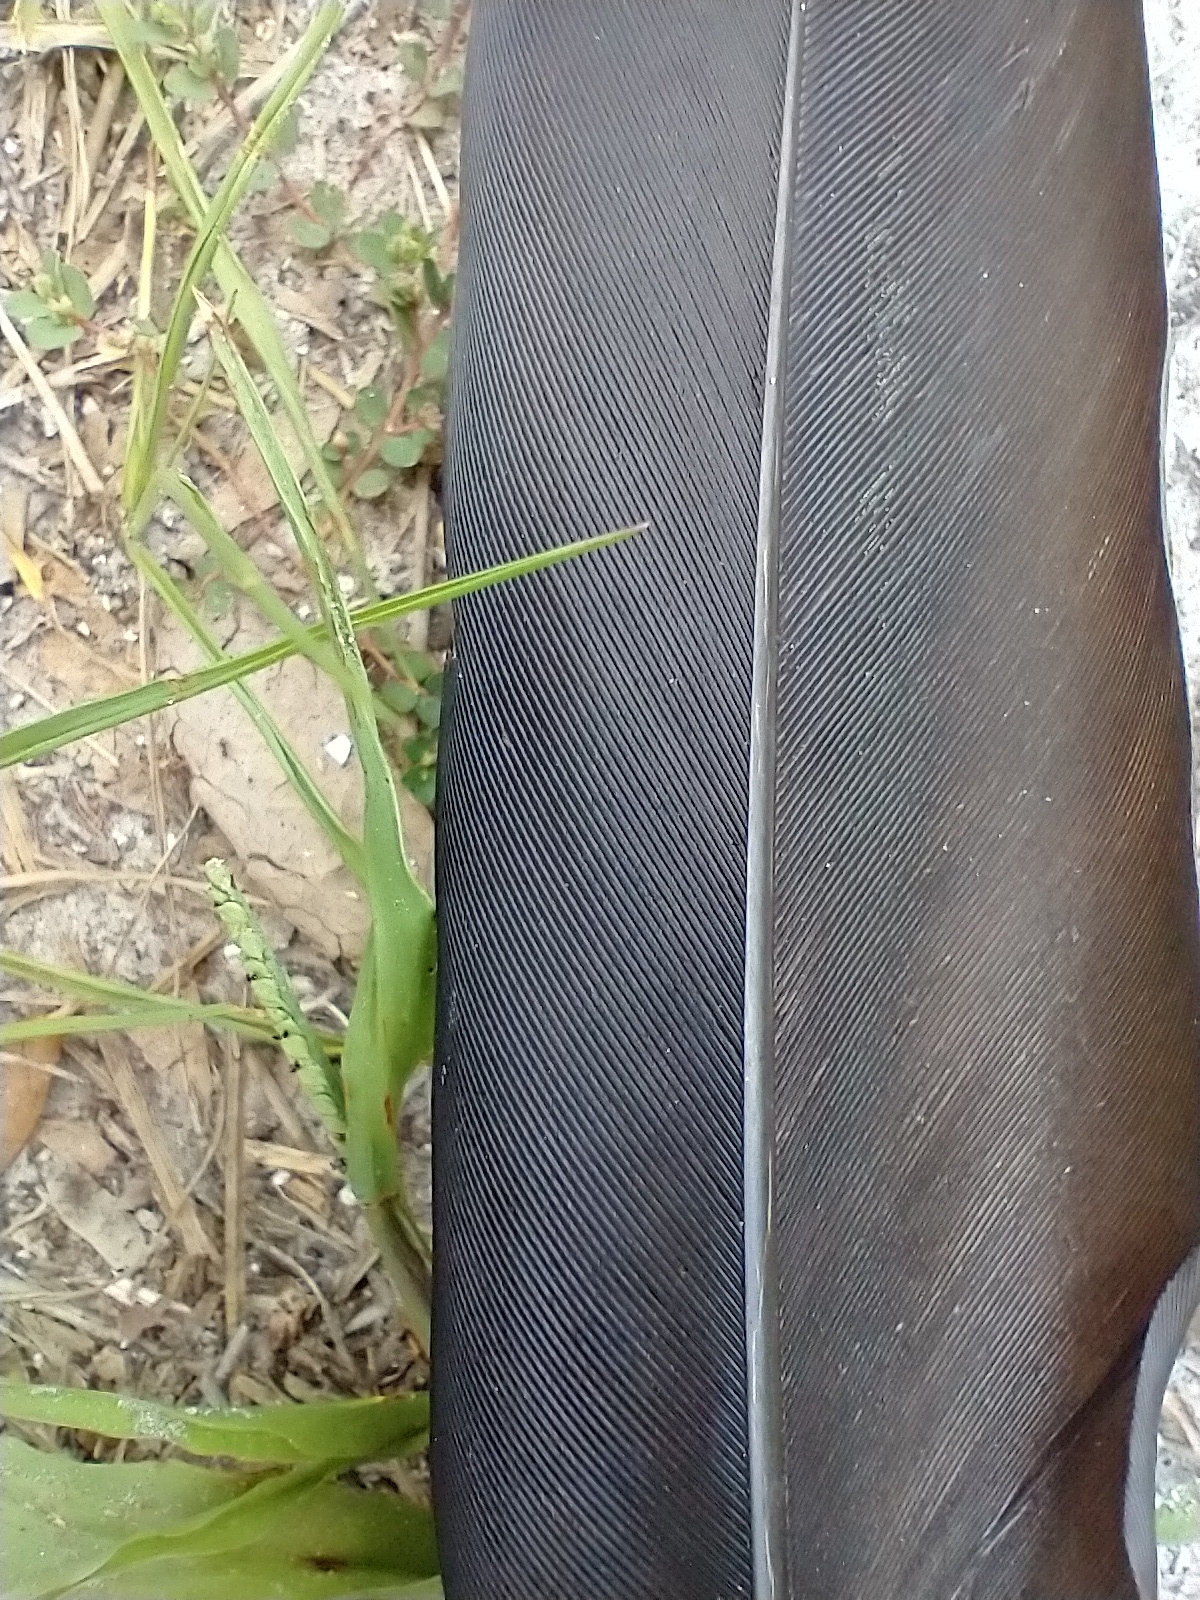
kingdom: Animalia
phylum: Chordata
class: Aves
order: Accipitriformes
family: Cathartidae
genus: Coragyps
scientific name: Coragyps atratus
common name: Black vulture
